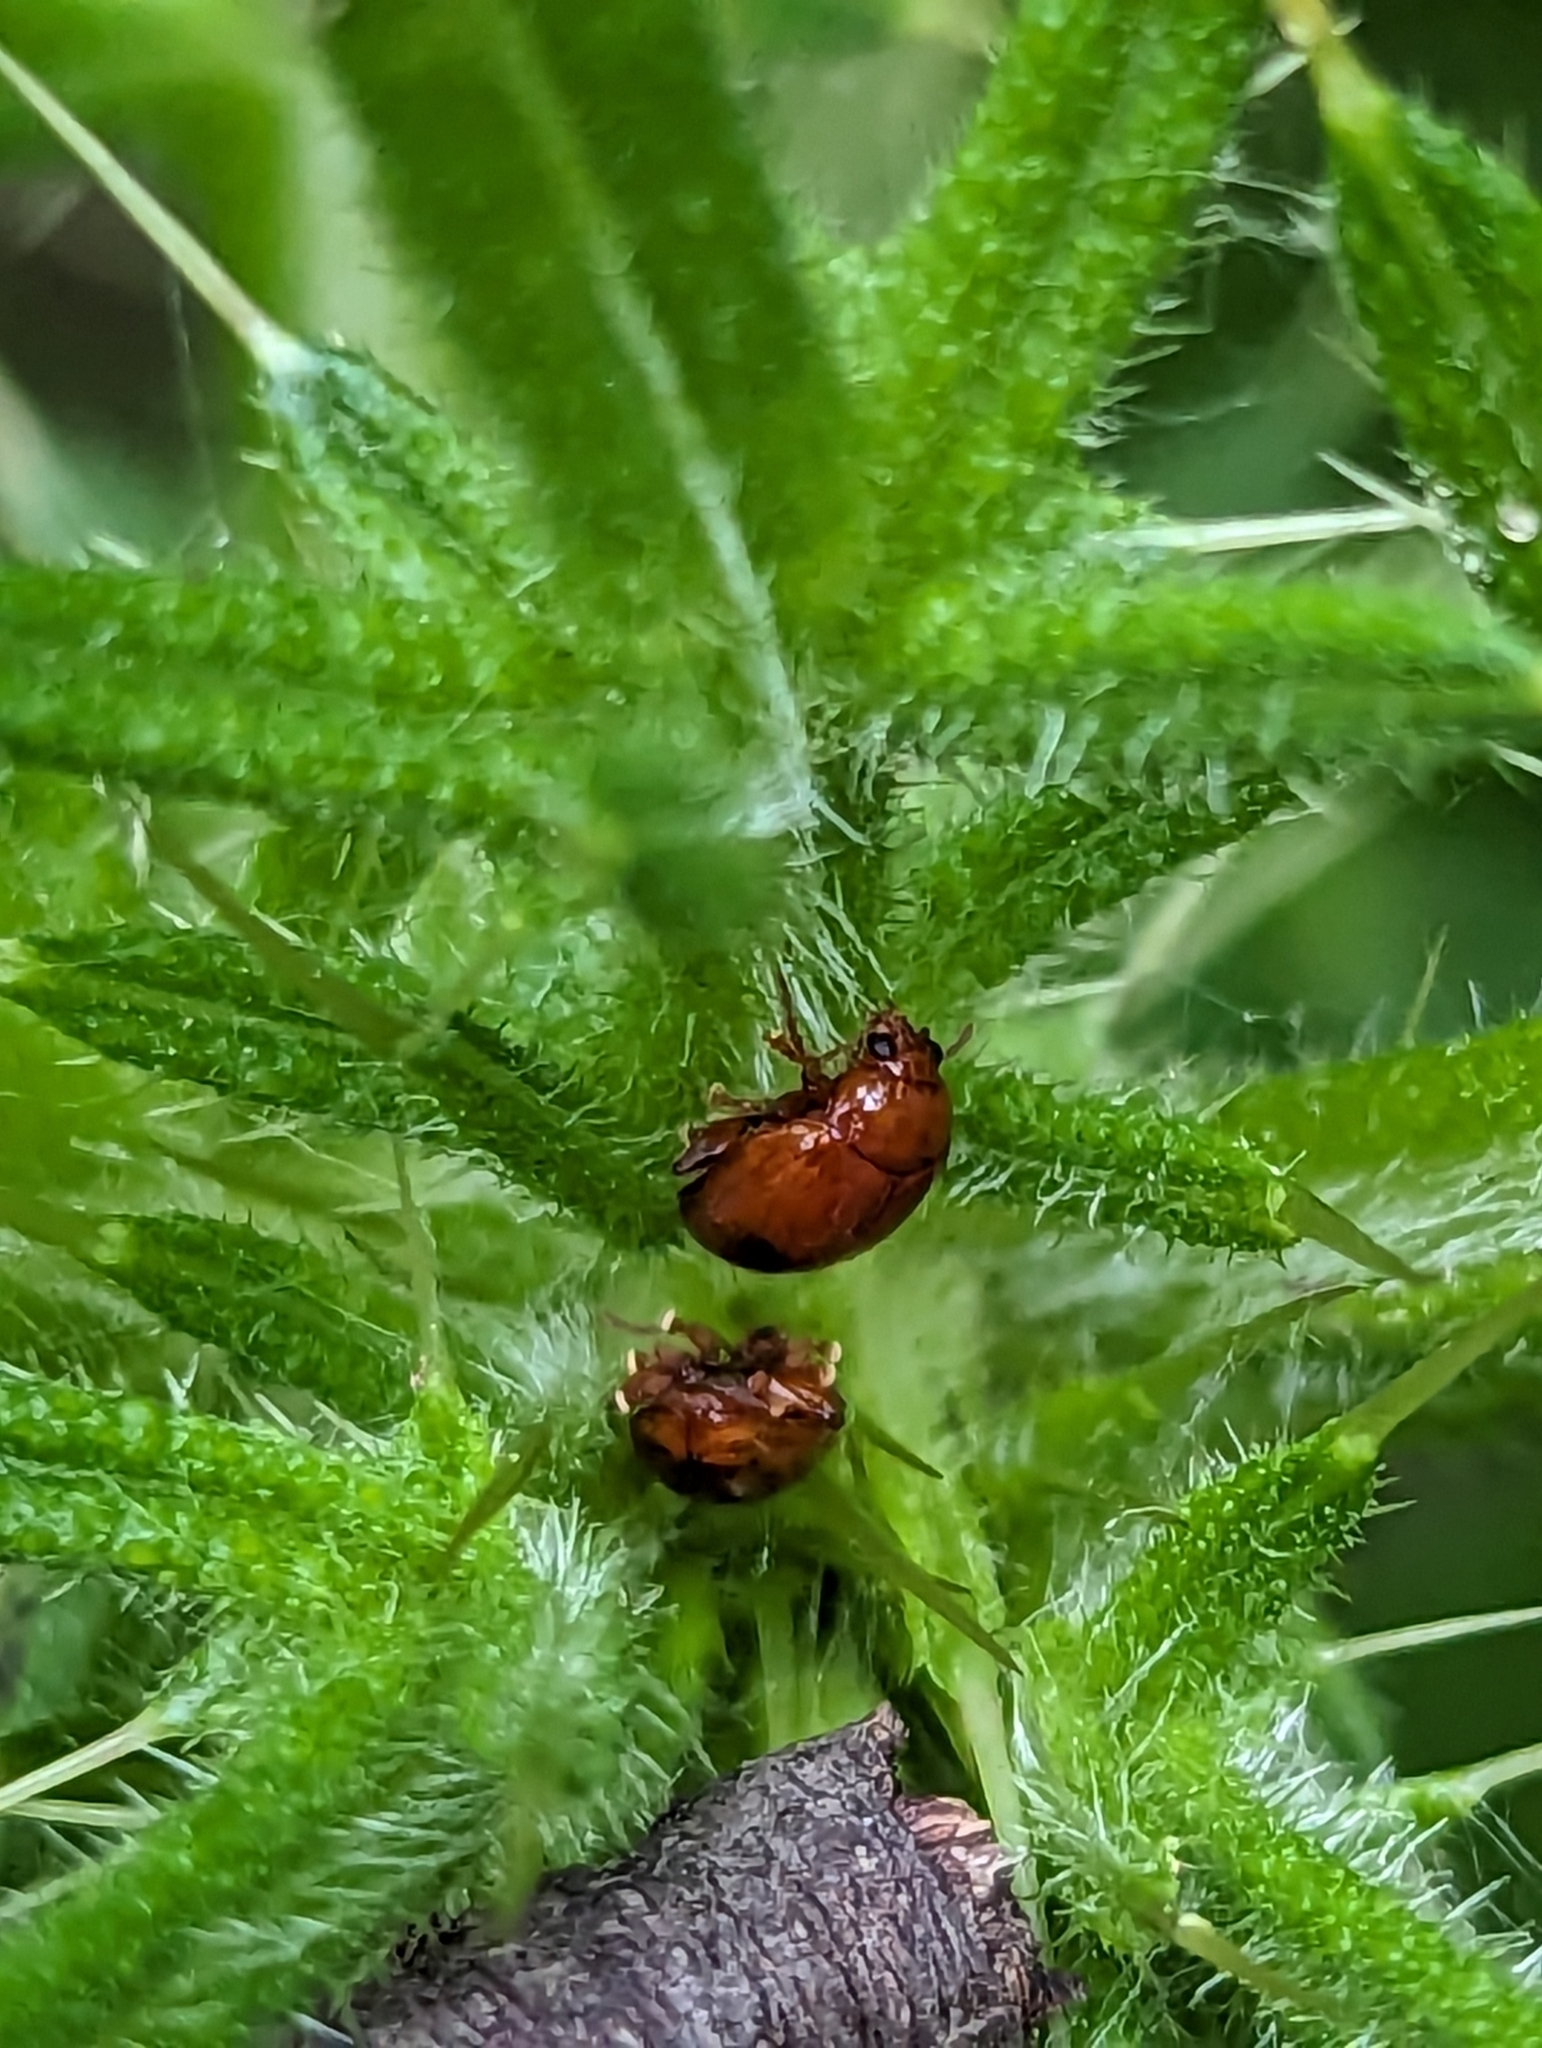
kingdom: Animalia
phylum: Arthropoda
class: Insecta
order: Coleoptera
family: Chrysomelidae
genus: Pistosia
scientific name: Pistosia testacea
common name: Leaf beetle
